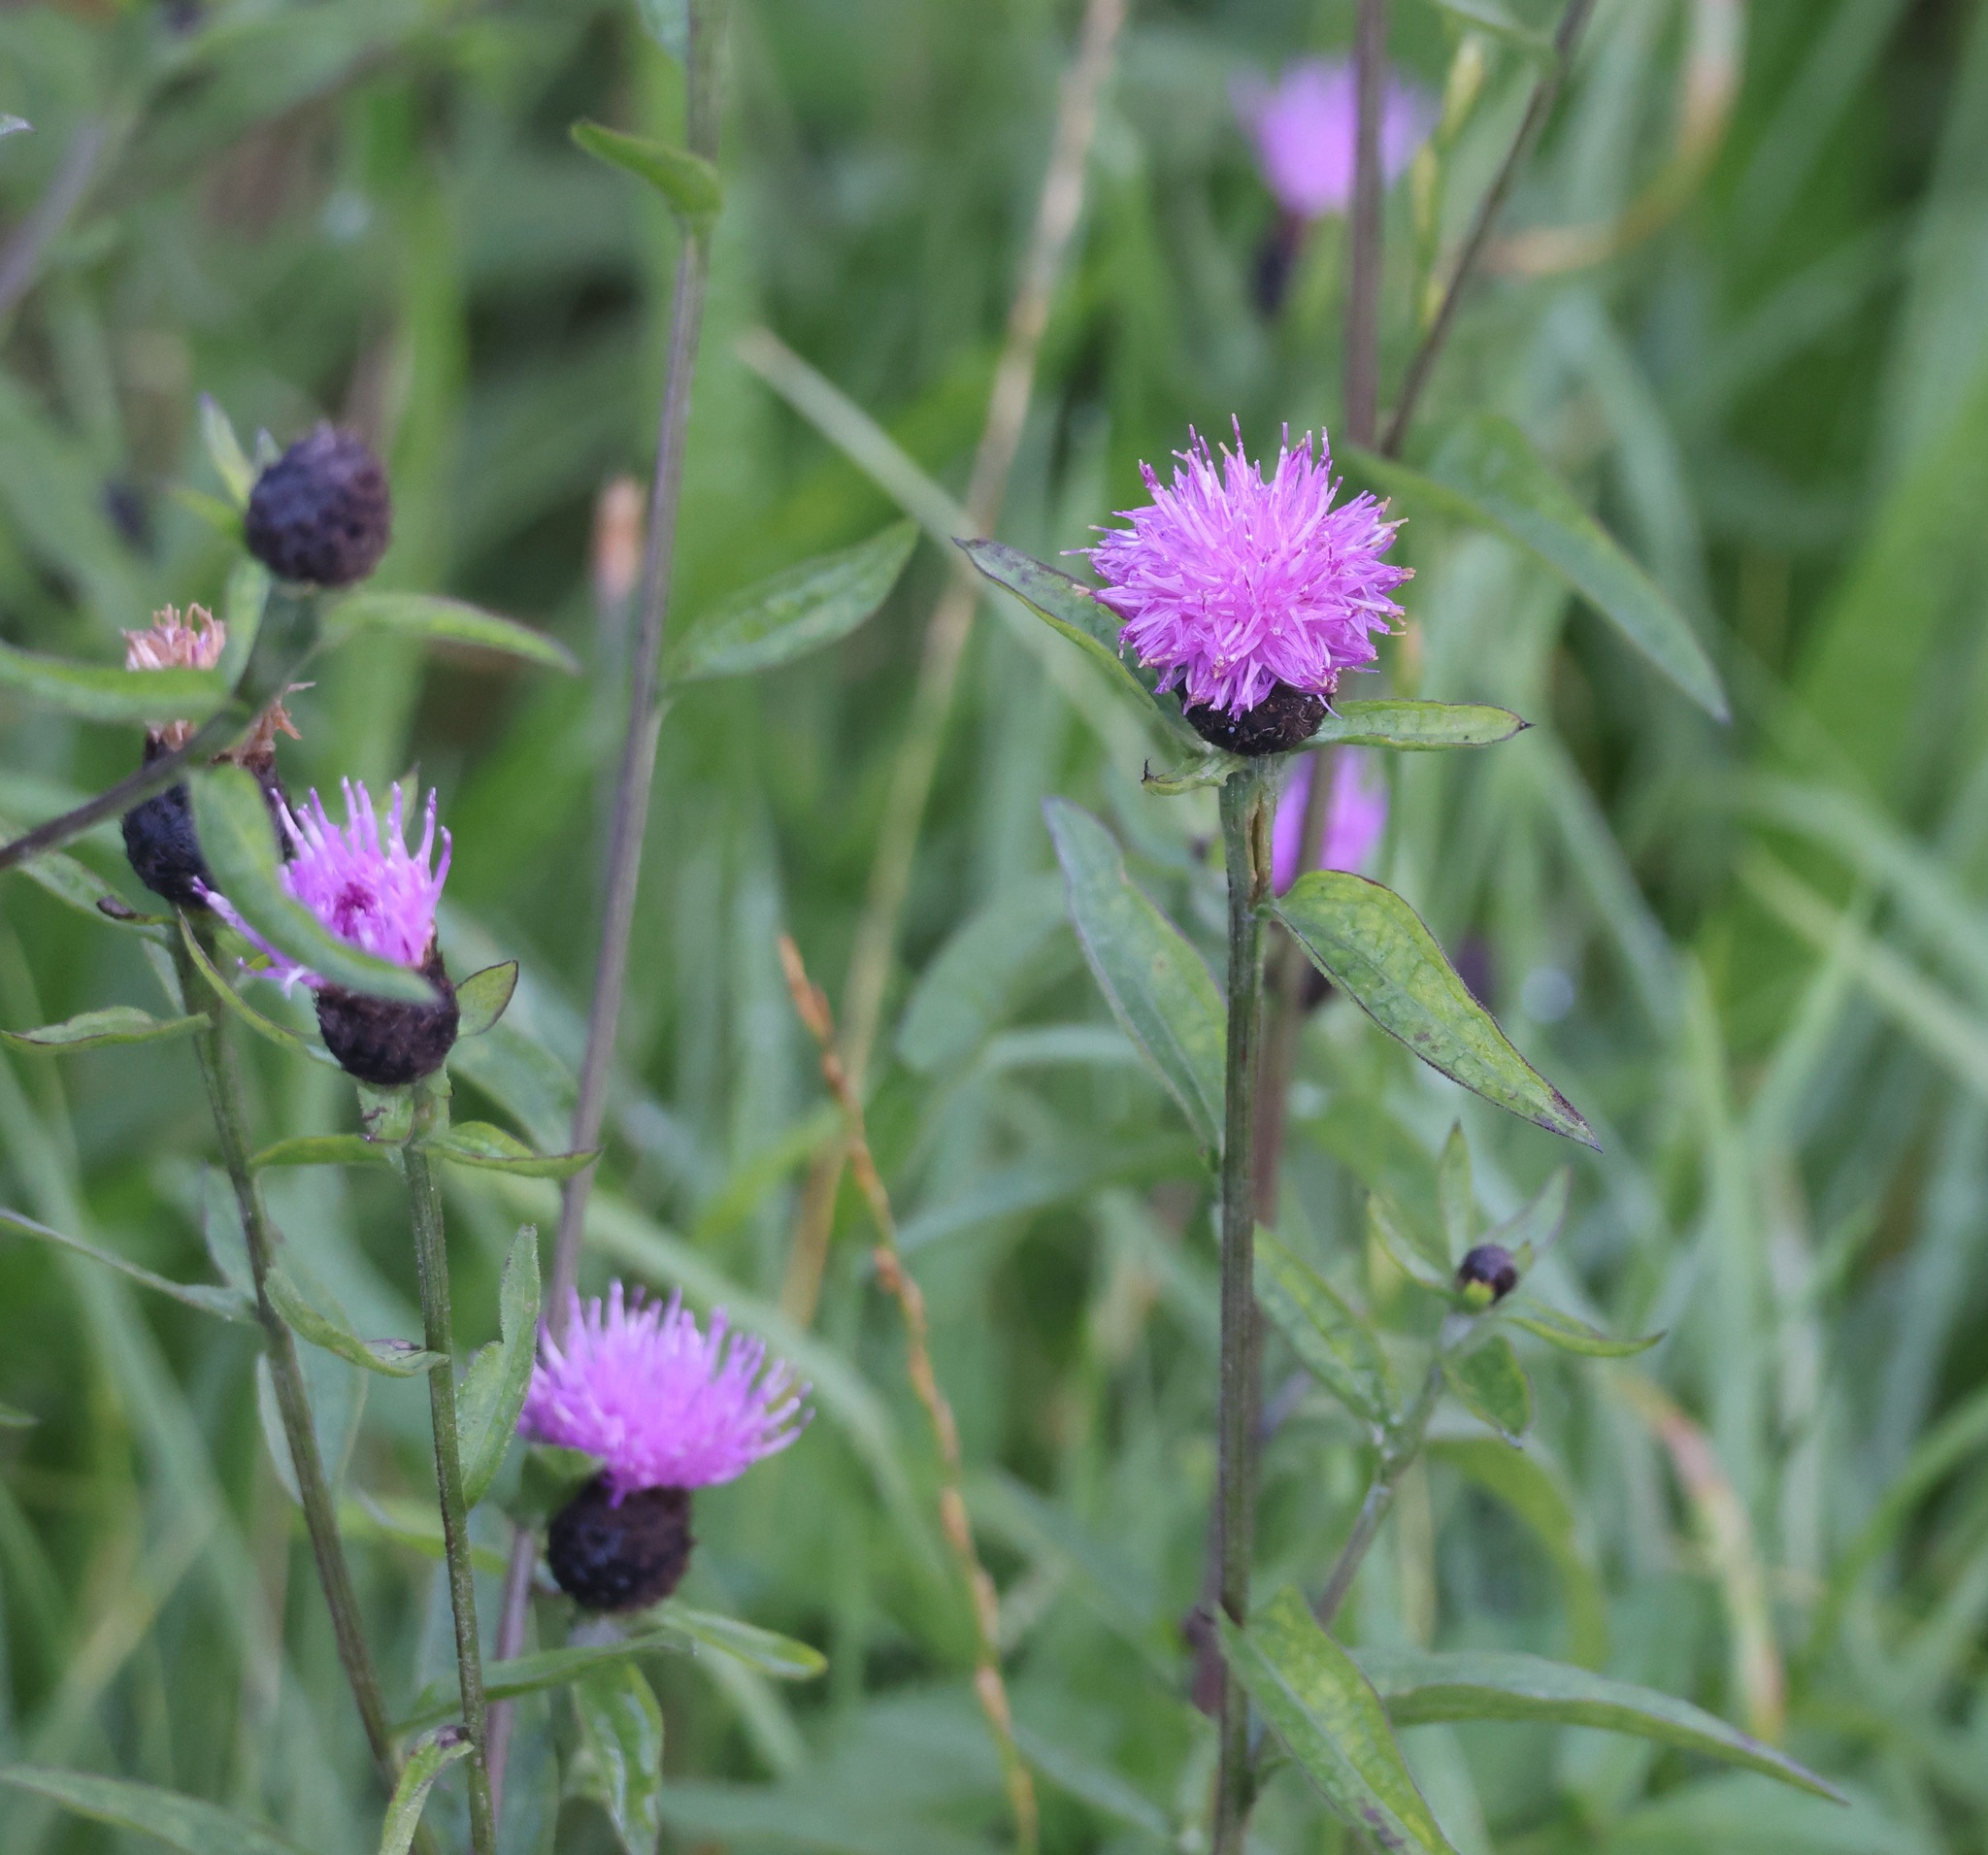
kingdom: Plantae
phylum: Tracheophyta
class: Magnoliopsida
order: Asterales
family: Asteraceae
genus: Centaurea
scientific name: Centaurea nigra
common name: Lesser knapweed
